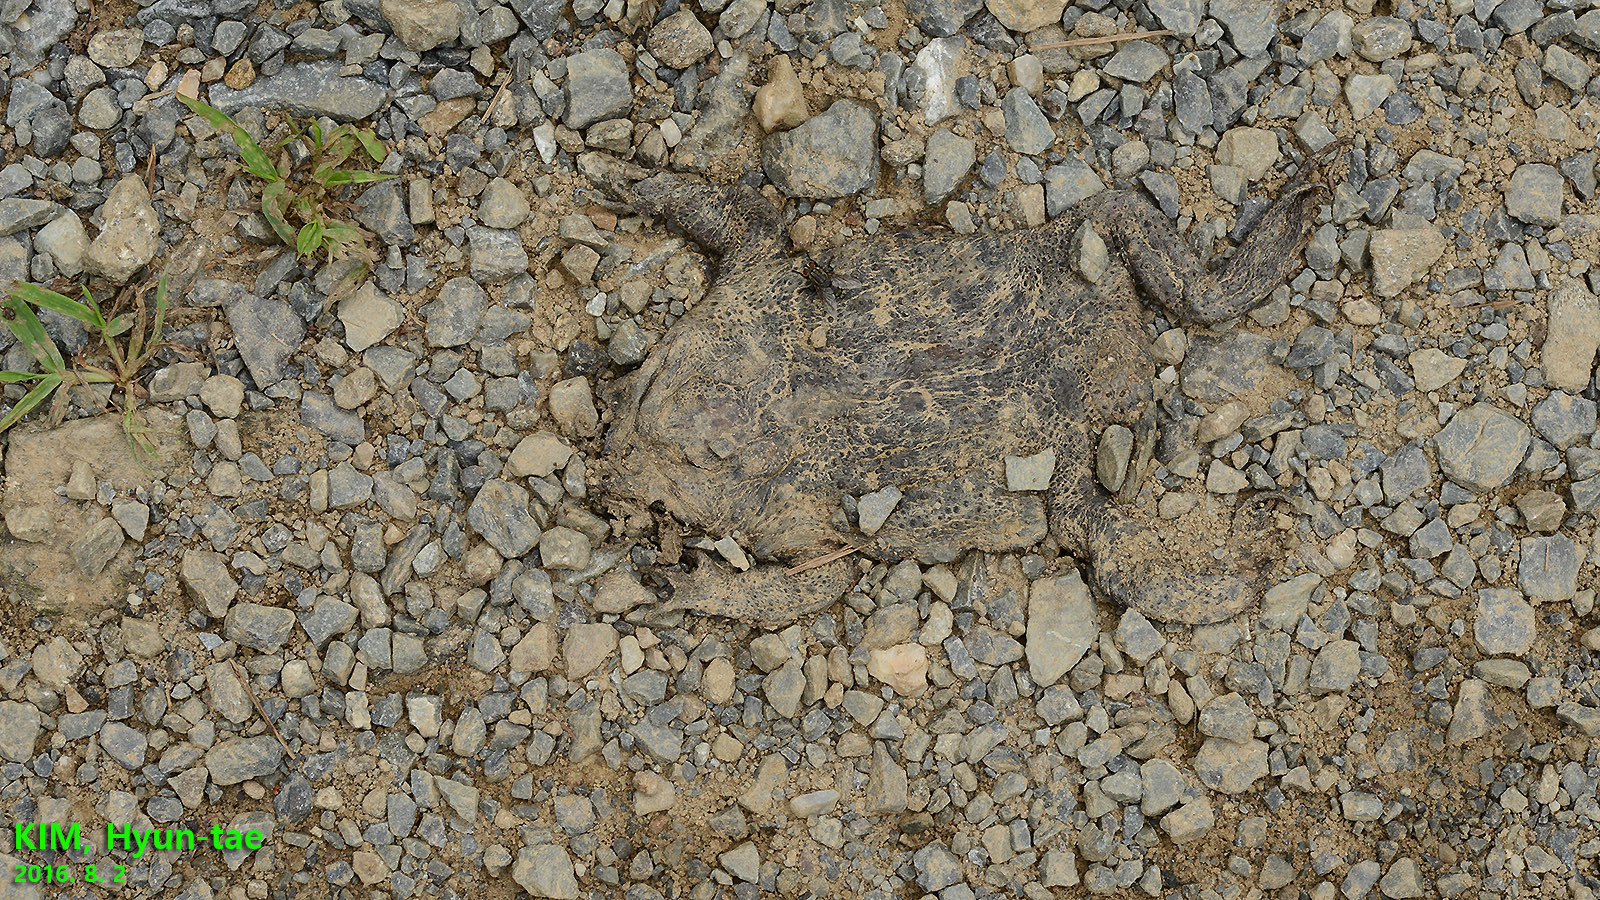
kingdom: Animalia
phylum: Chordata
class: Amphibia
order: Anura
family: Bufonidae
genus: Bufo
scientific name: Bufo gargarizans
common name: Asiatic toad
